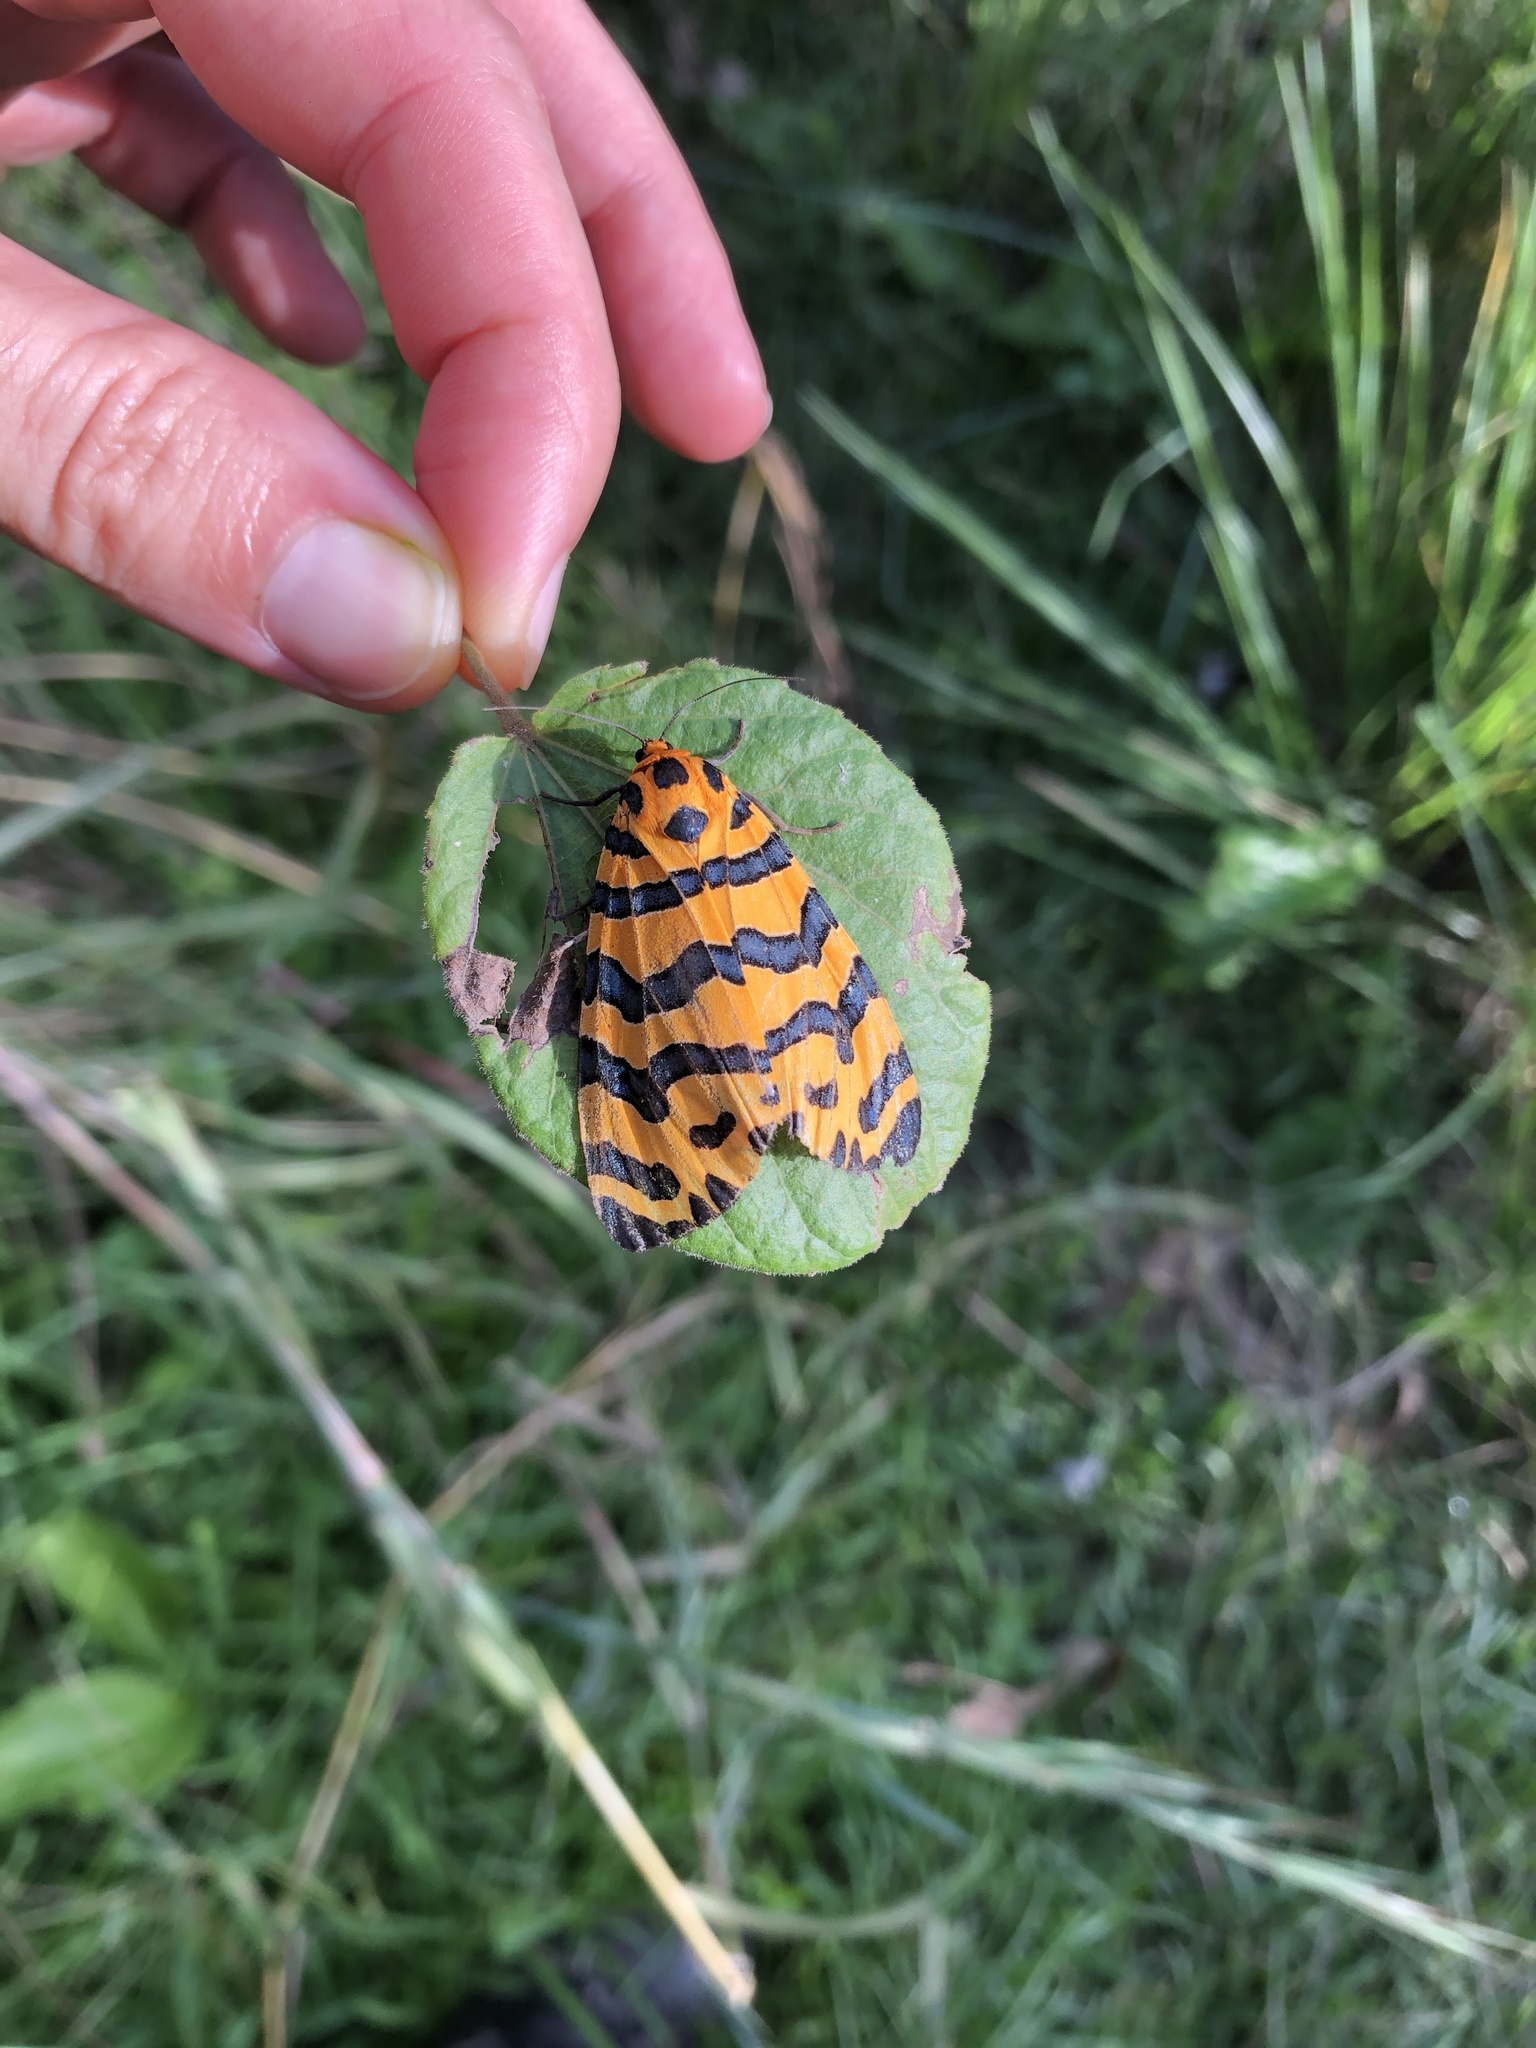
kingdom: Animalia
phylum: Arthropoda
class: Insecta
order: Lepidoptera
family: Erebidae
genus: Amphicallia
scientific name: Amphicallia bellatrix
